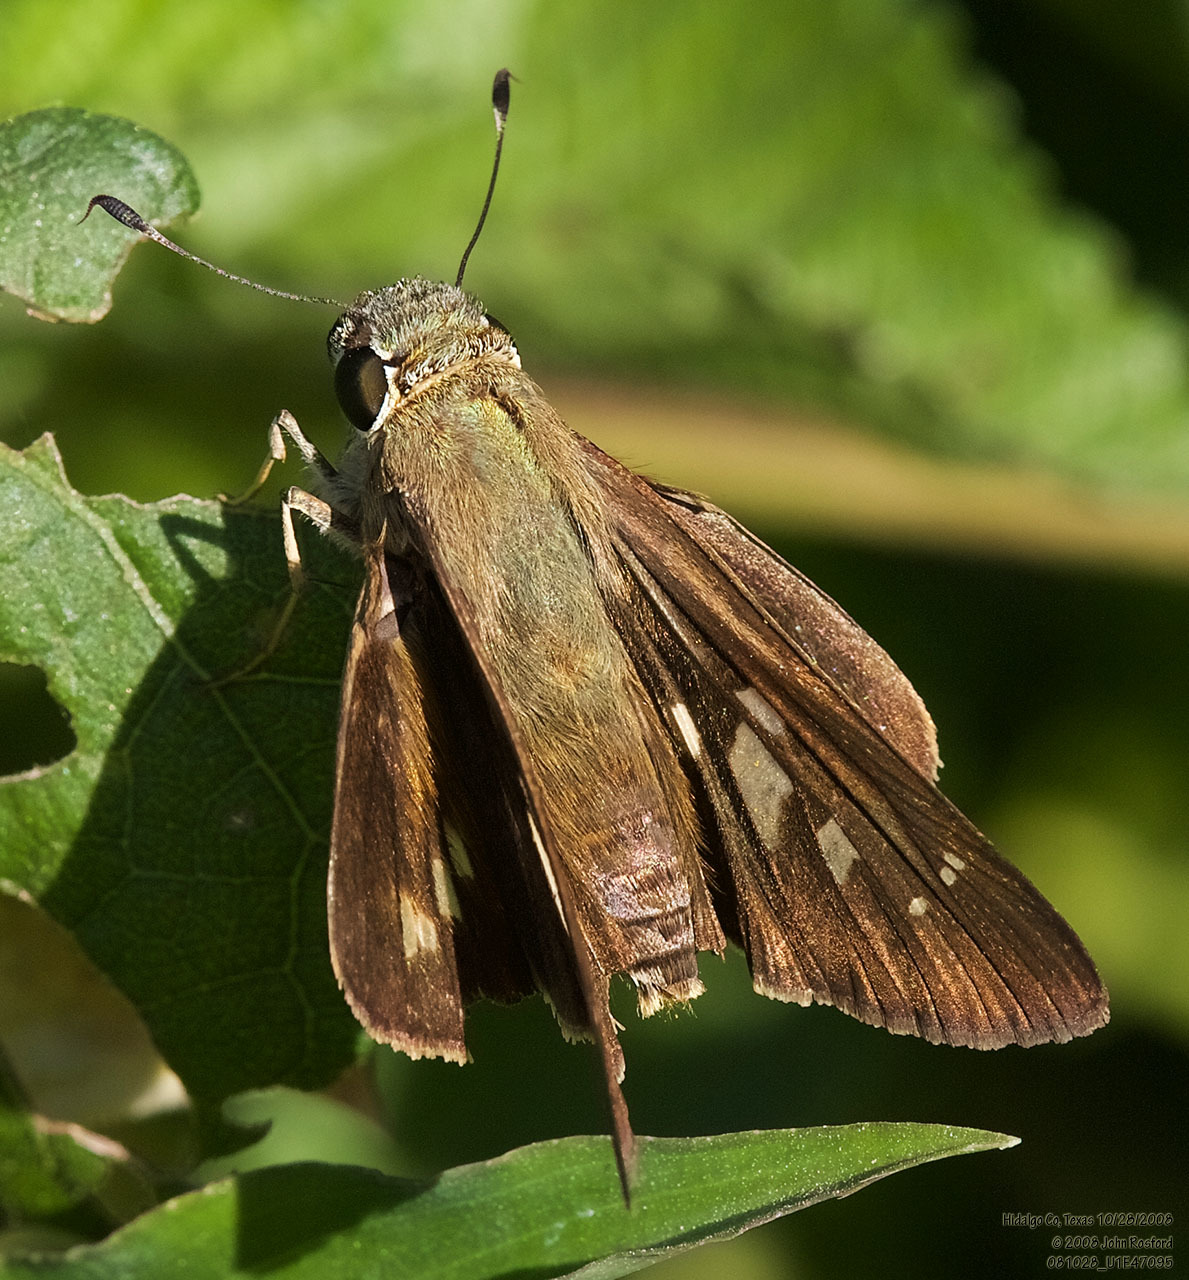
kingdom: Animalia
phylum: Arthropoda
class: Insecta
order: Lepidoptera
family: Hesperiidae
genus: Calpodes
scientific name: Calpodes ethlius
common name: Brazilian skipper
